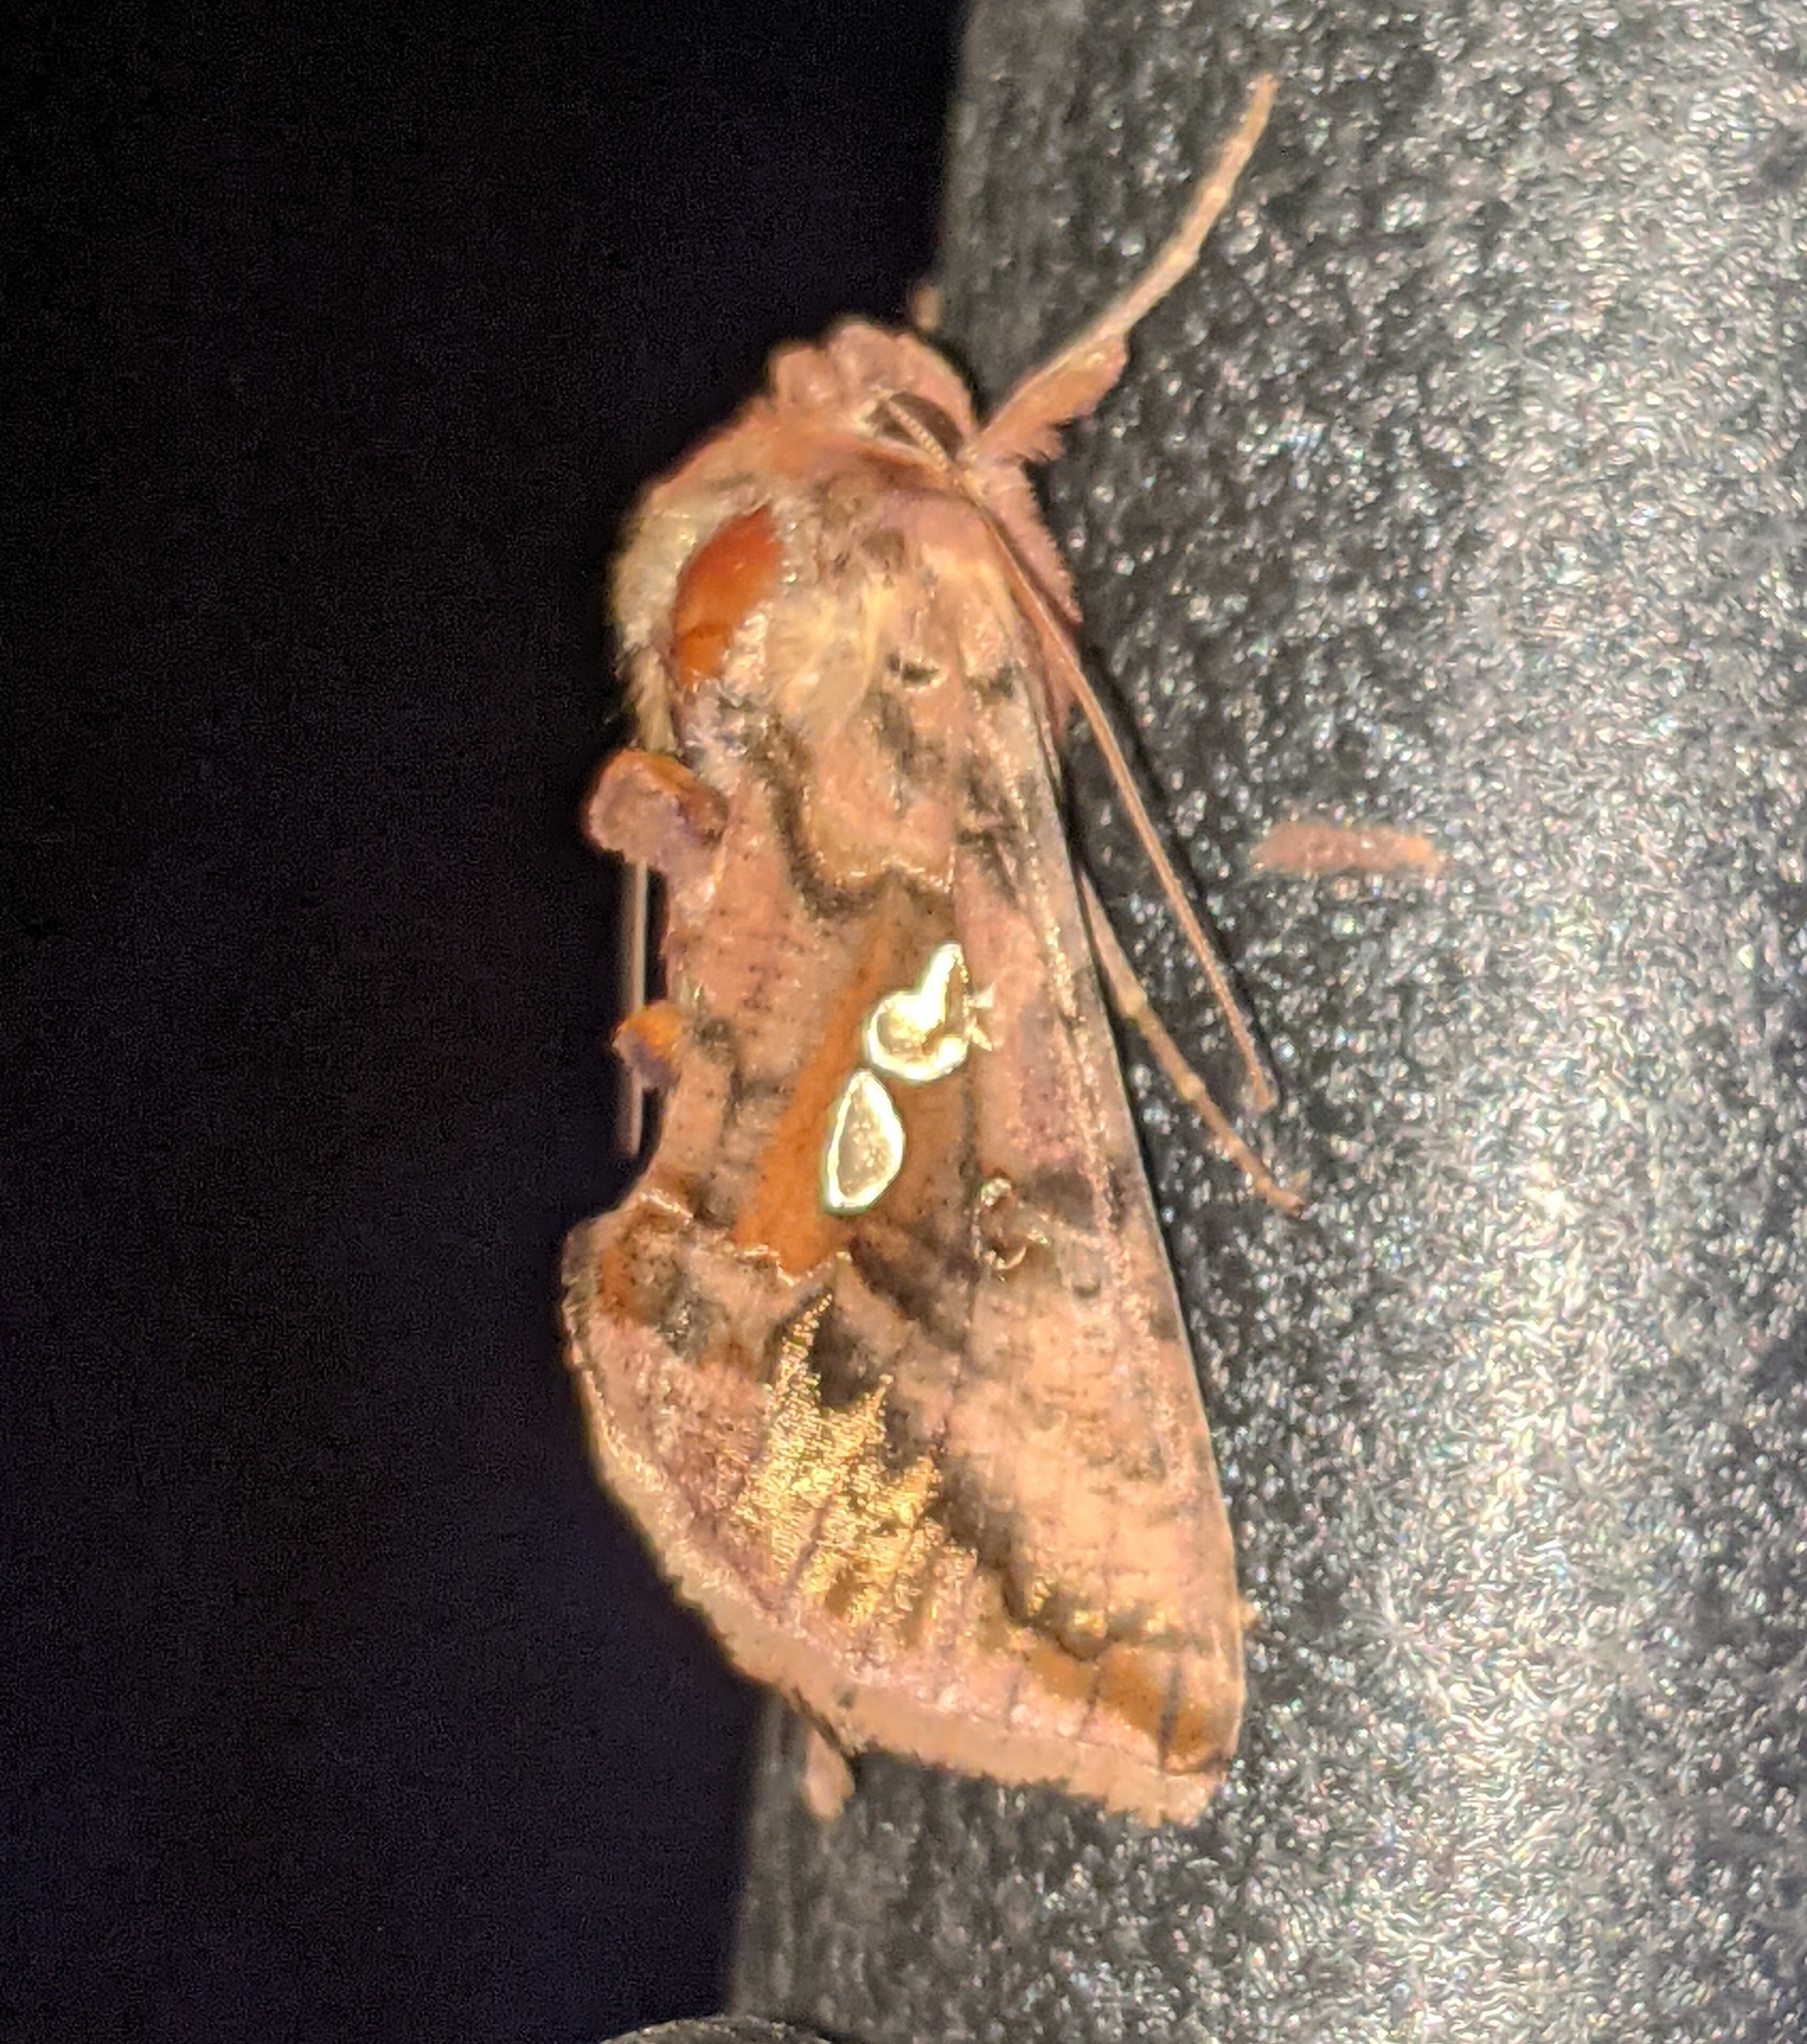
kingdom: Animalia
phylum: Arthropoda
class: Insecta
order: Lepidoptera
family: Noctuidae
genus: Autographa
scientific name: Autographa bimaculata
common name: Double-spotted spangle
